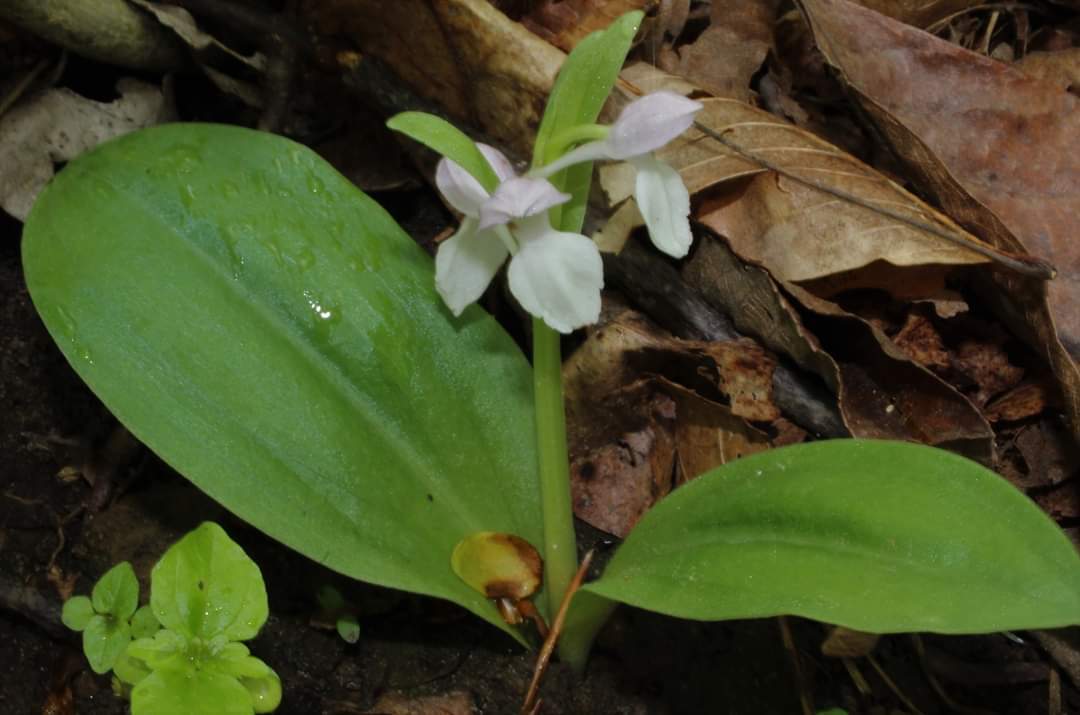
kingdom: Plantae
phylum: Tracheophyta
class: Liliopsida
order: Asparagales
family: Orchidaceae
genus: Galearis
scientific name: Galearis spectabilis
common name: Purple-hooded orchis
